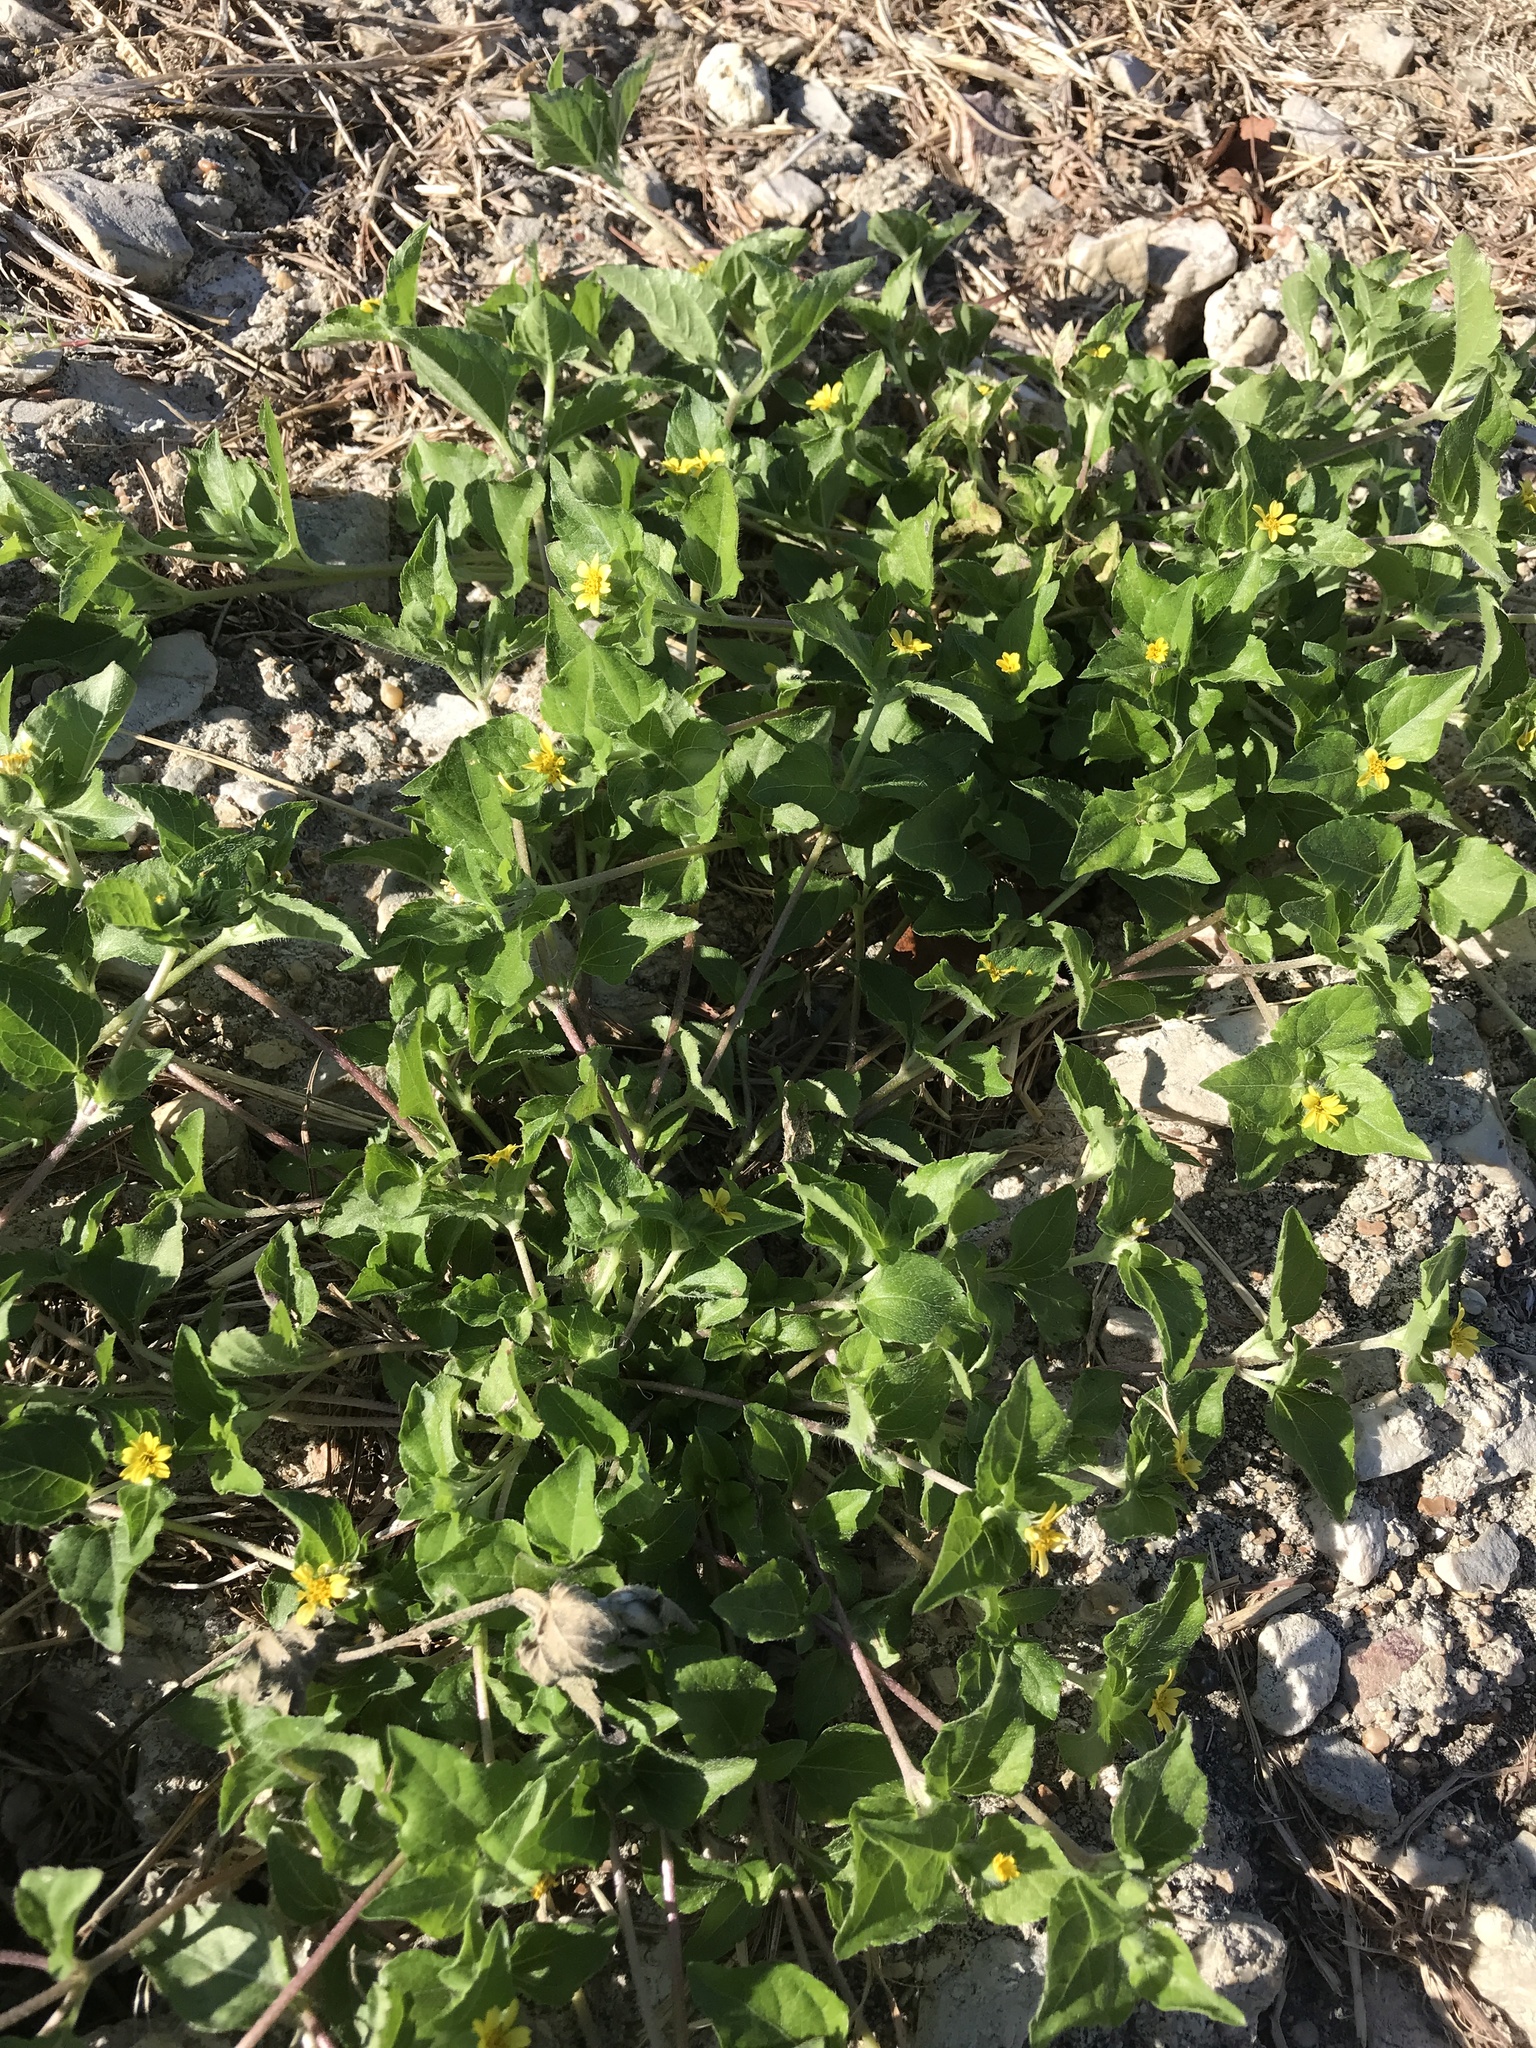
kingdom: Plantae
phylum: Tracheophyta
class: Magnoliopsida
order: Asterales
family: Asteraceae
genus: Calyptocarpus
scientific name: Calyptocarpus vialis
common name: Straggler daisy
